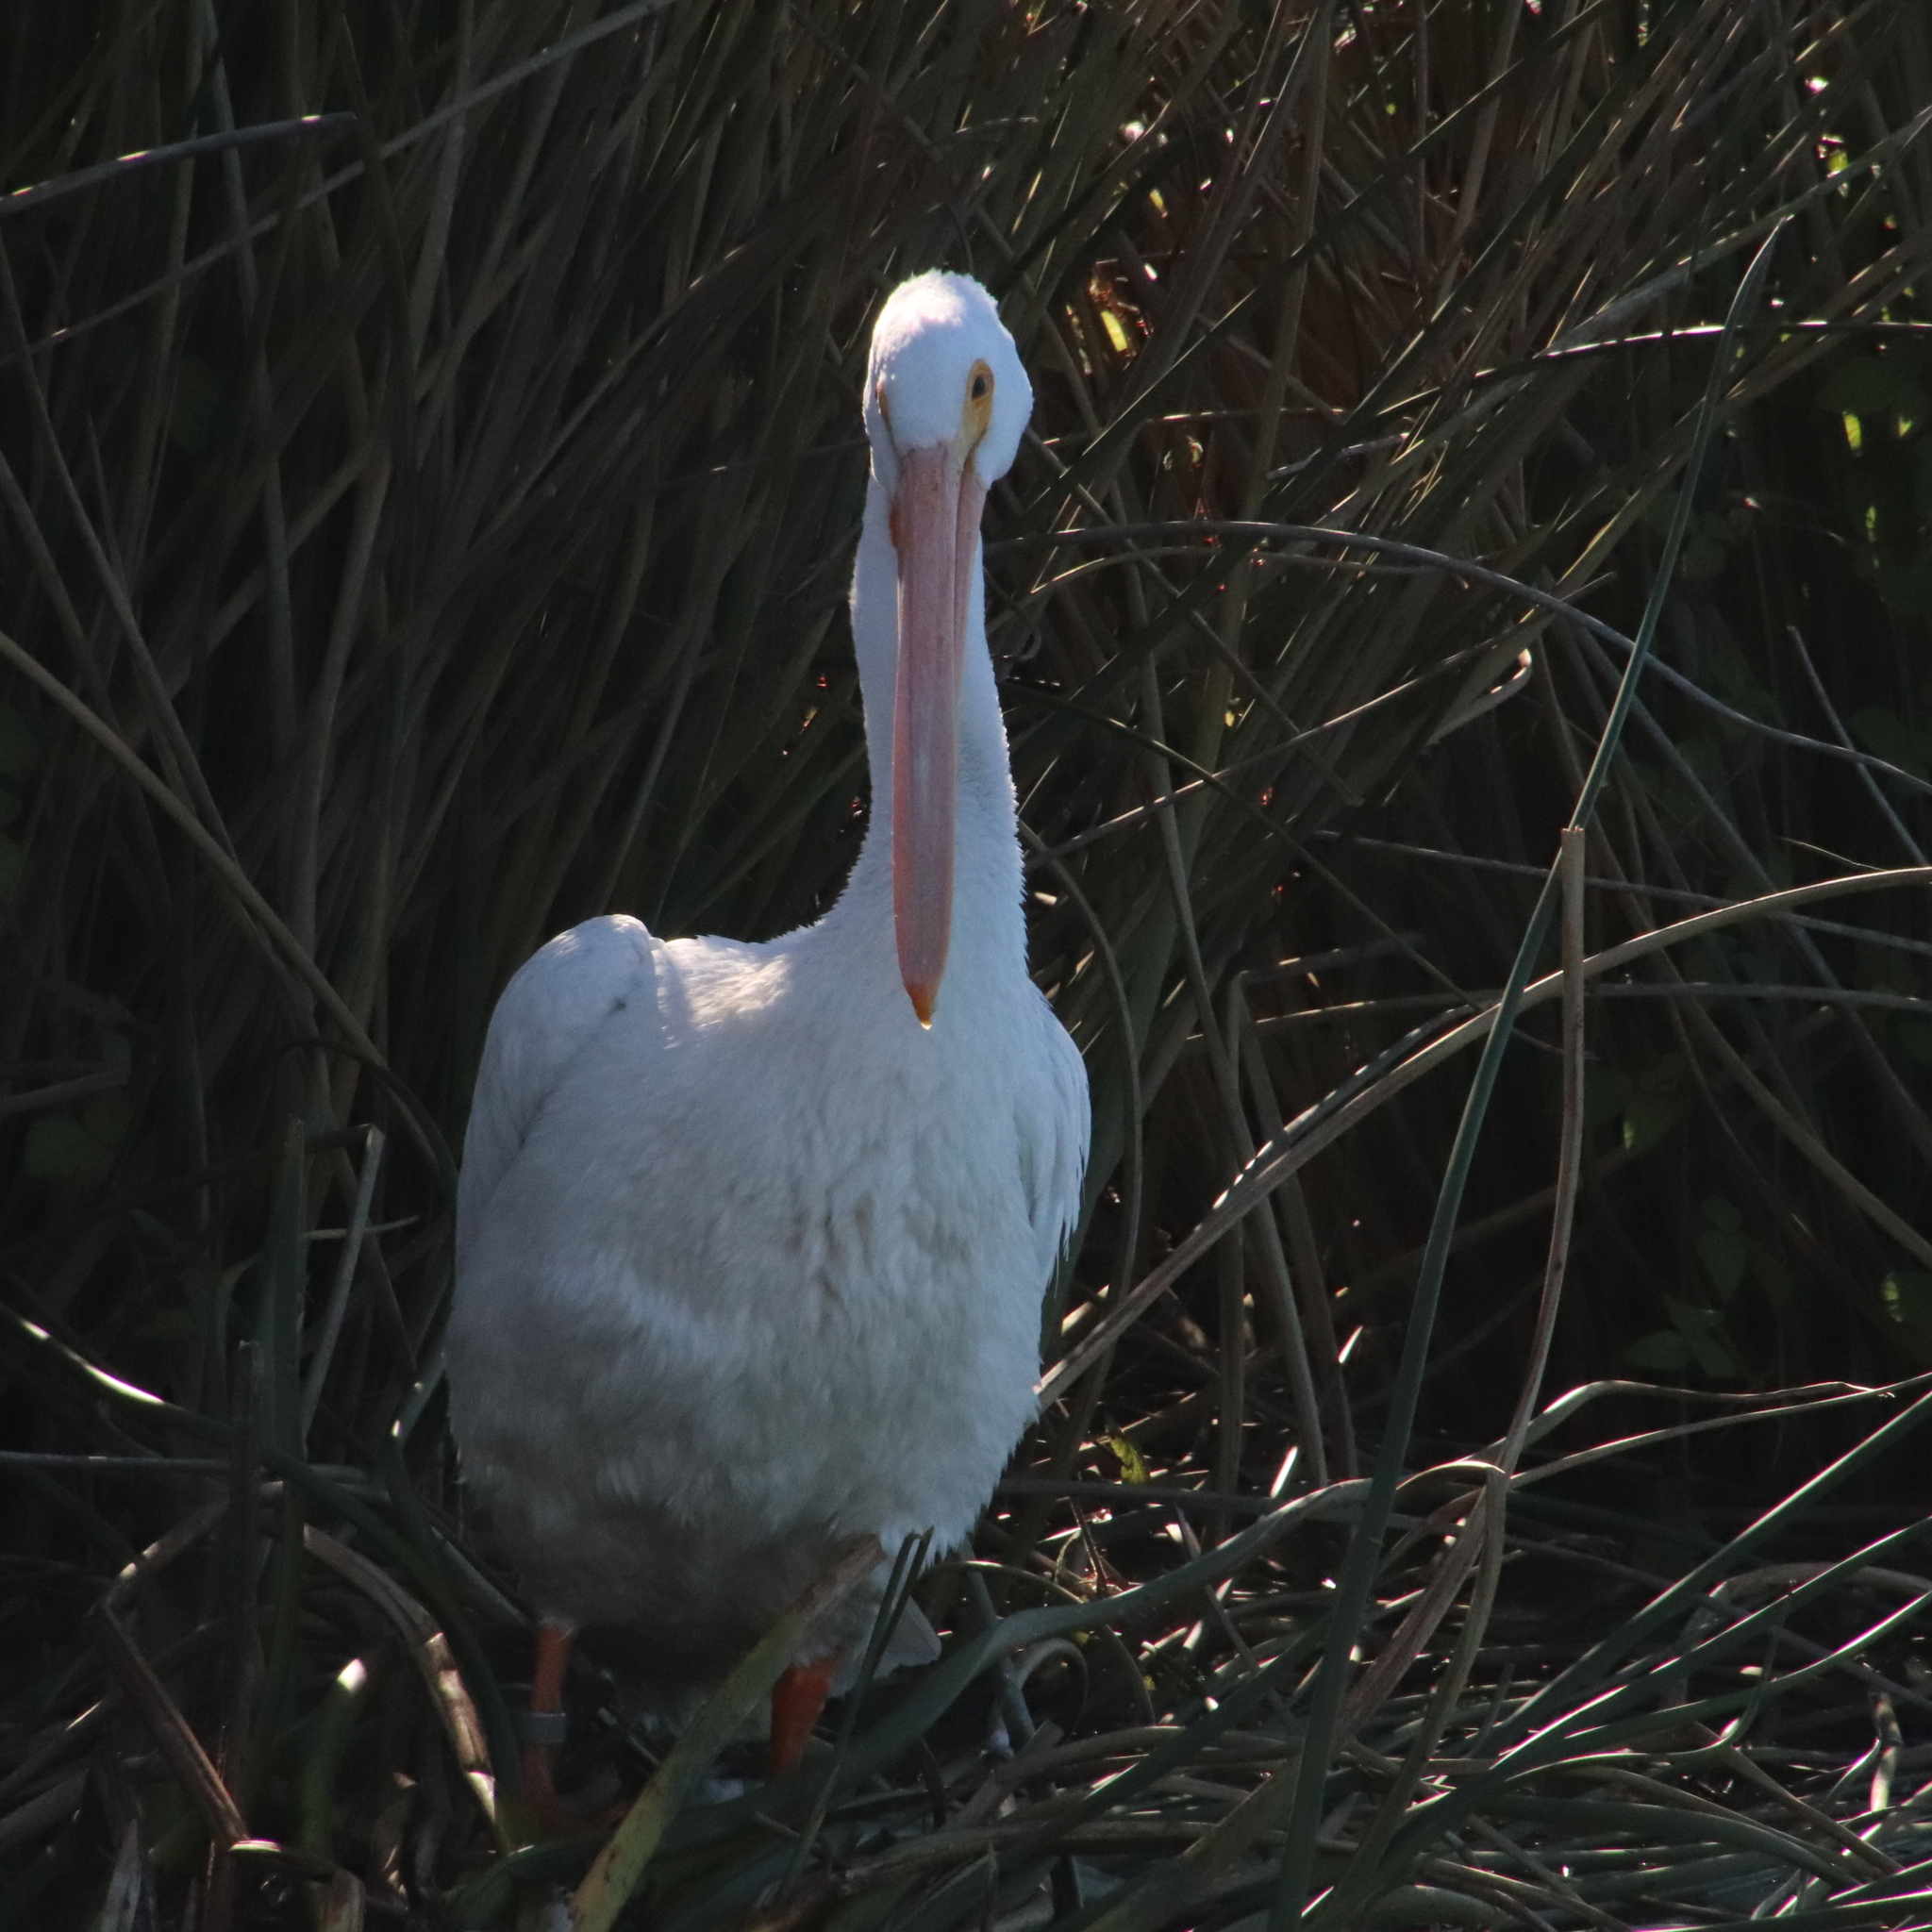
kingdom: Animalia
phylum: Chordata
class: Aves
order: Pelecaniformes
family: Pelecanidae
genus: Pelecanus
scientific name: Pelecanus erythrorhynchos
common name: American white pelican
